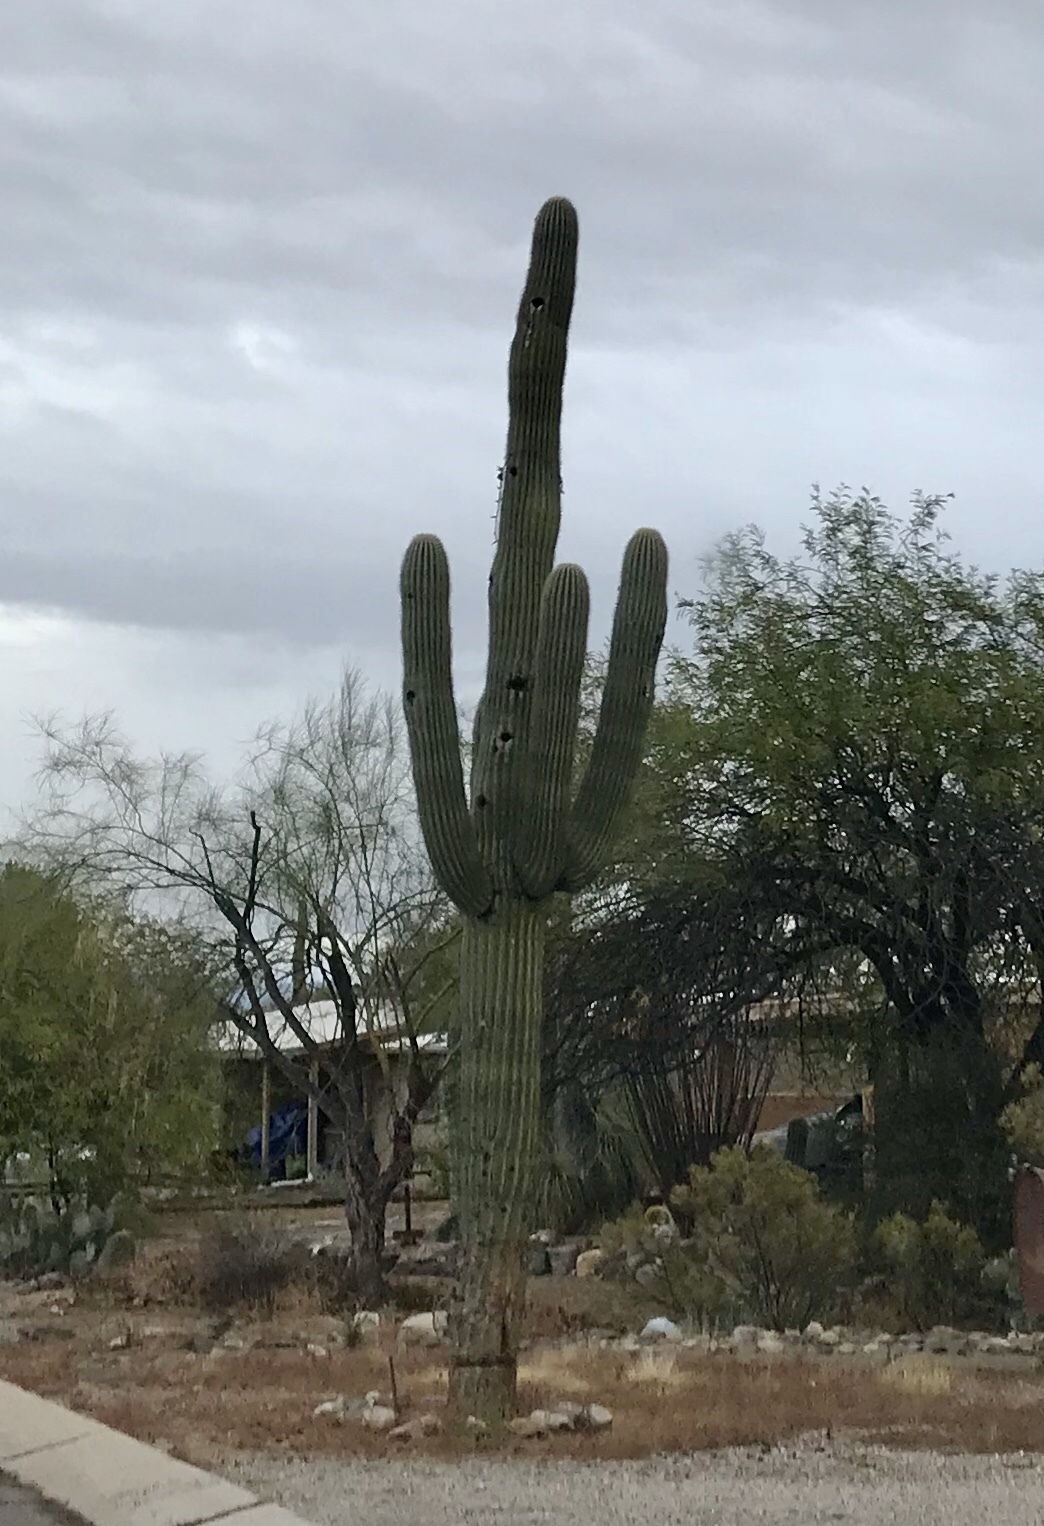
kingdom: Plantae
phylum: Tracheophyta
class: Magnoliopsida
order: Caryophyllales
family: Cactaceae
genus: Carnegiea
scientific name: Carnegiea gigantea
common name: Saguaro
